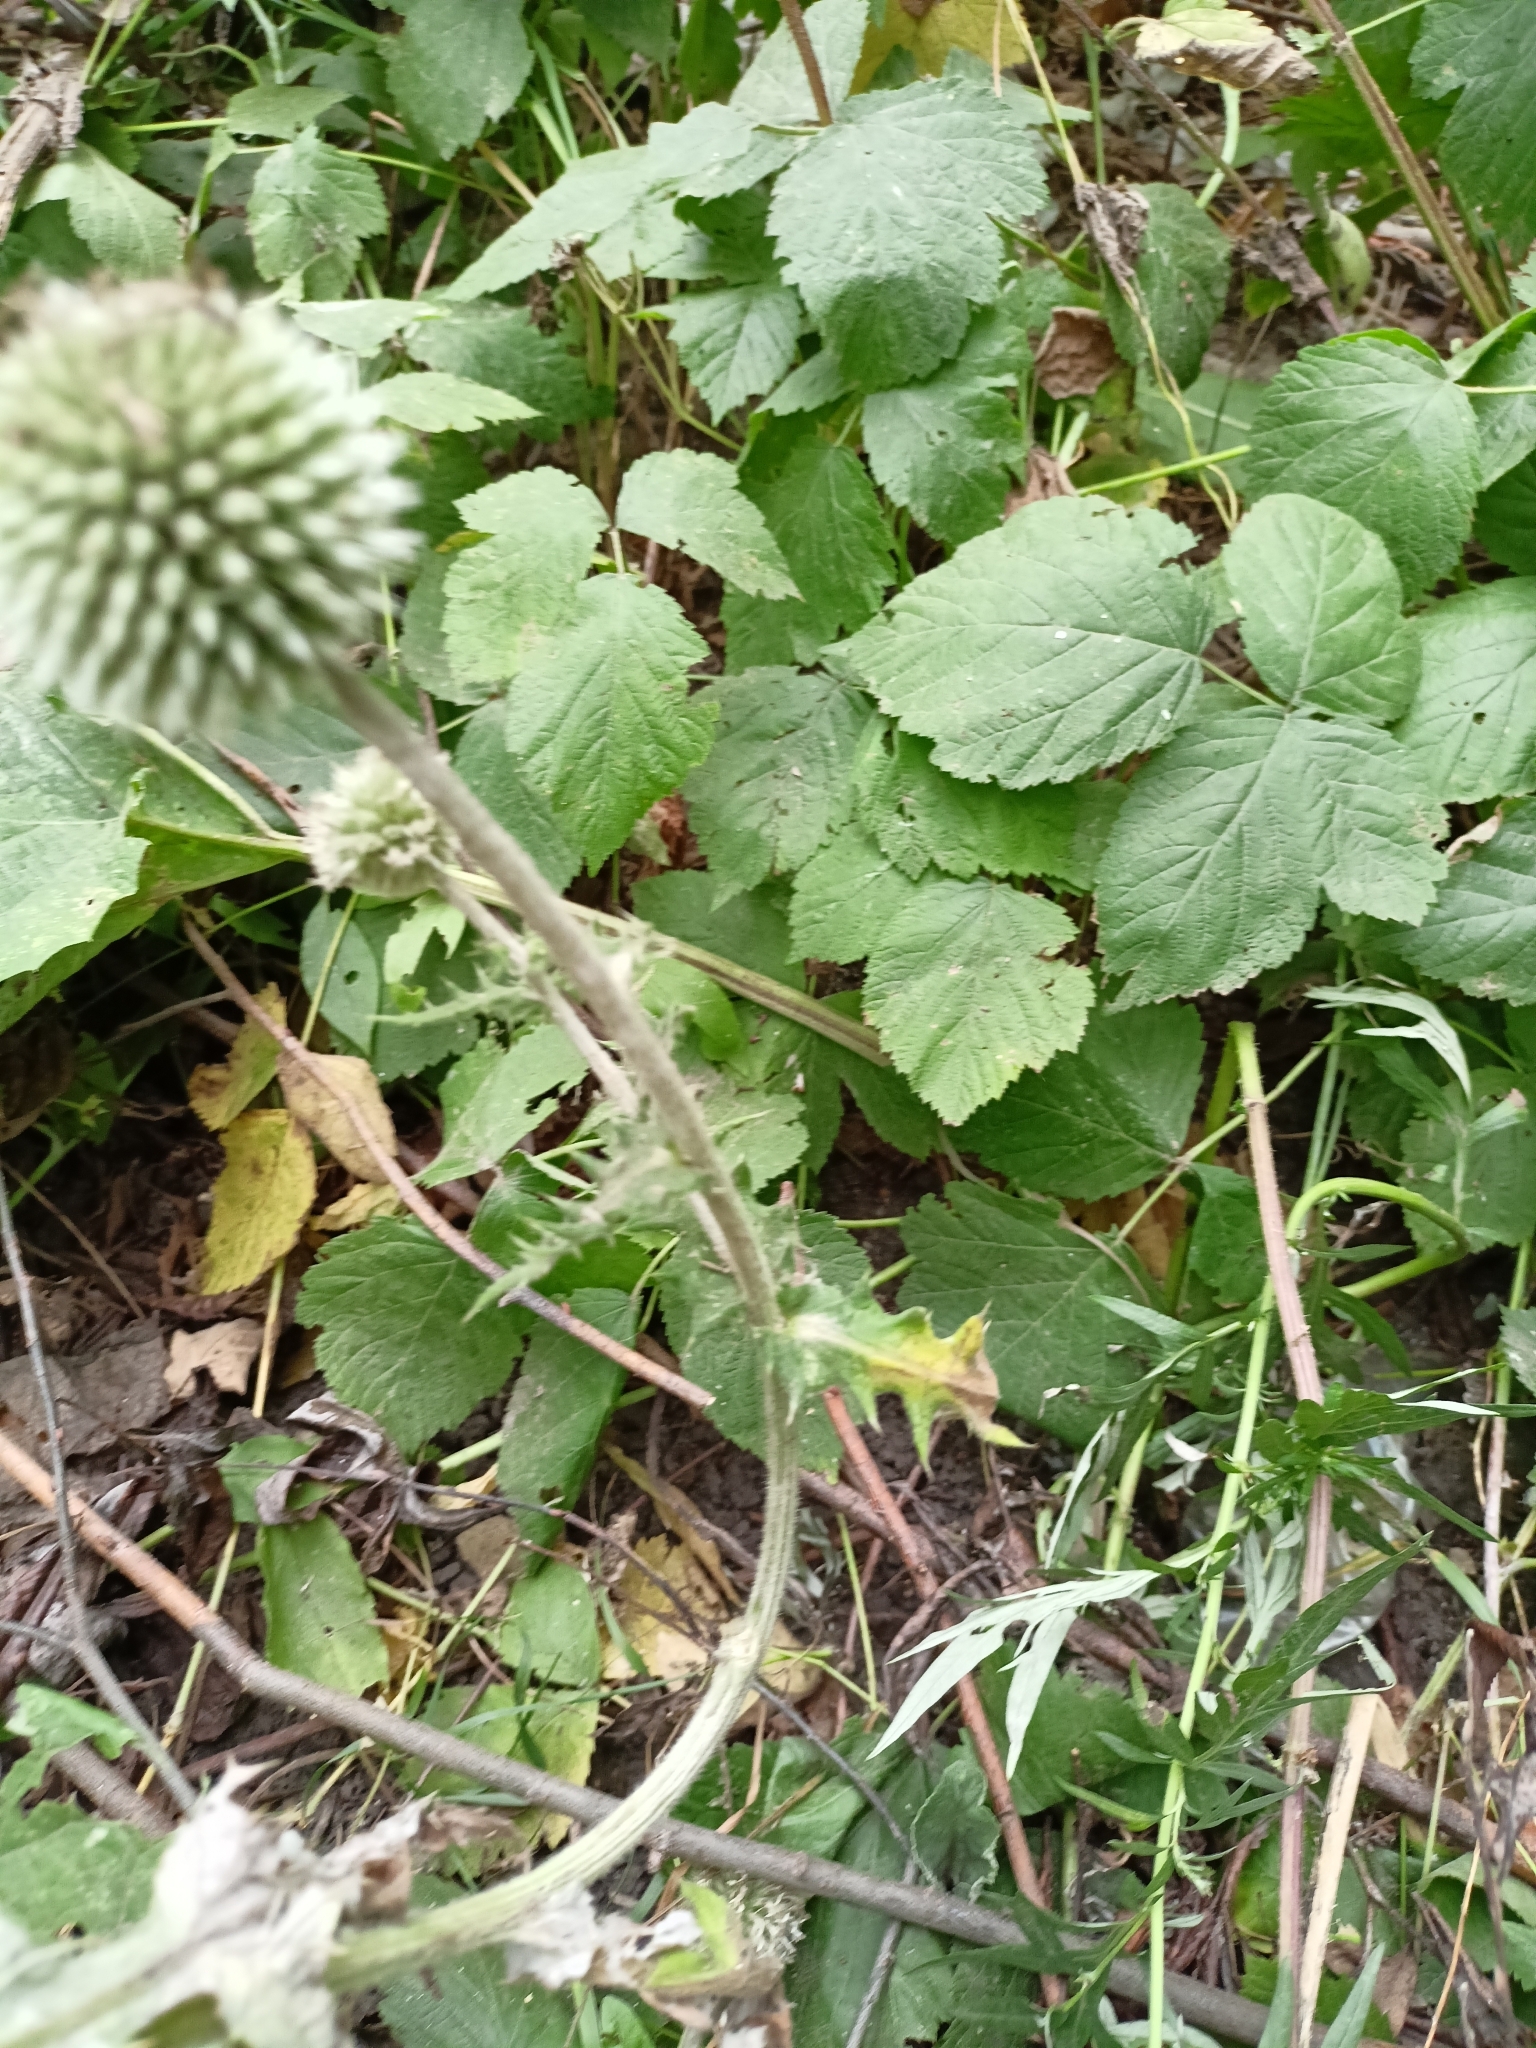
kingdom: Plantae
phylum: Tracheophyta
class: Magnoliopsida
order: Asterales
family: Asteraceae
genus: Echinops
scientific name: Echinops sphaerocephalus
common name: Glandular globe-thistle
